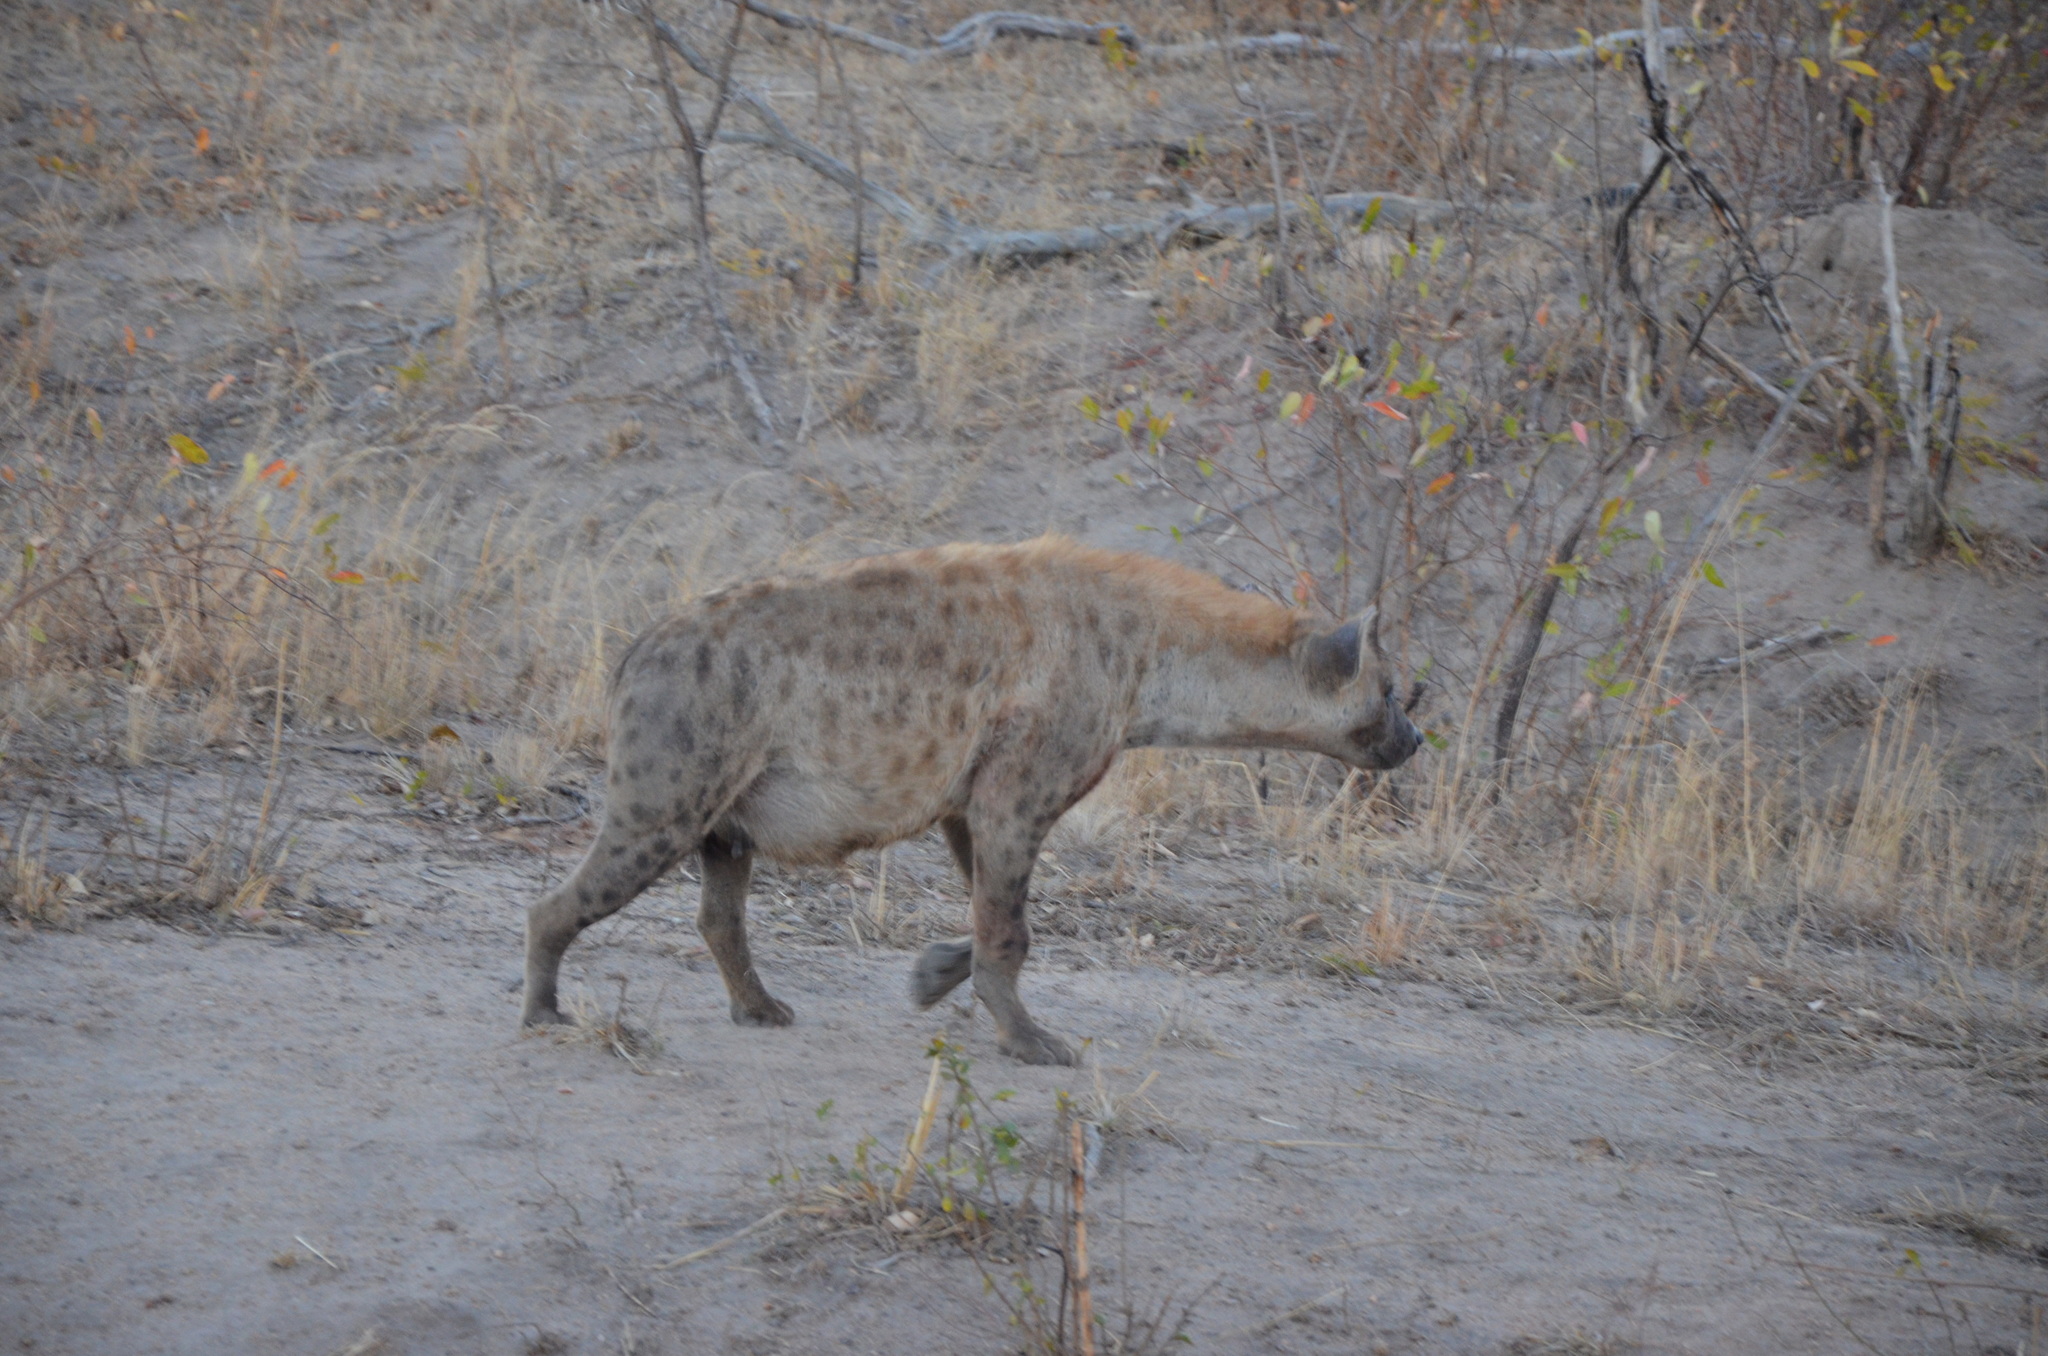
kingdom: Animalia
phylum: Chordata
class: Mammalia
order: Carnivora
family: Hyaenidae
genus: Crocuta
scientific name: Crocuta crocuta
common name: Spotted hyaena
